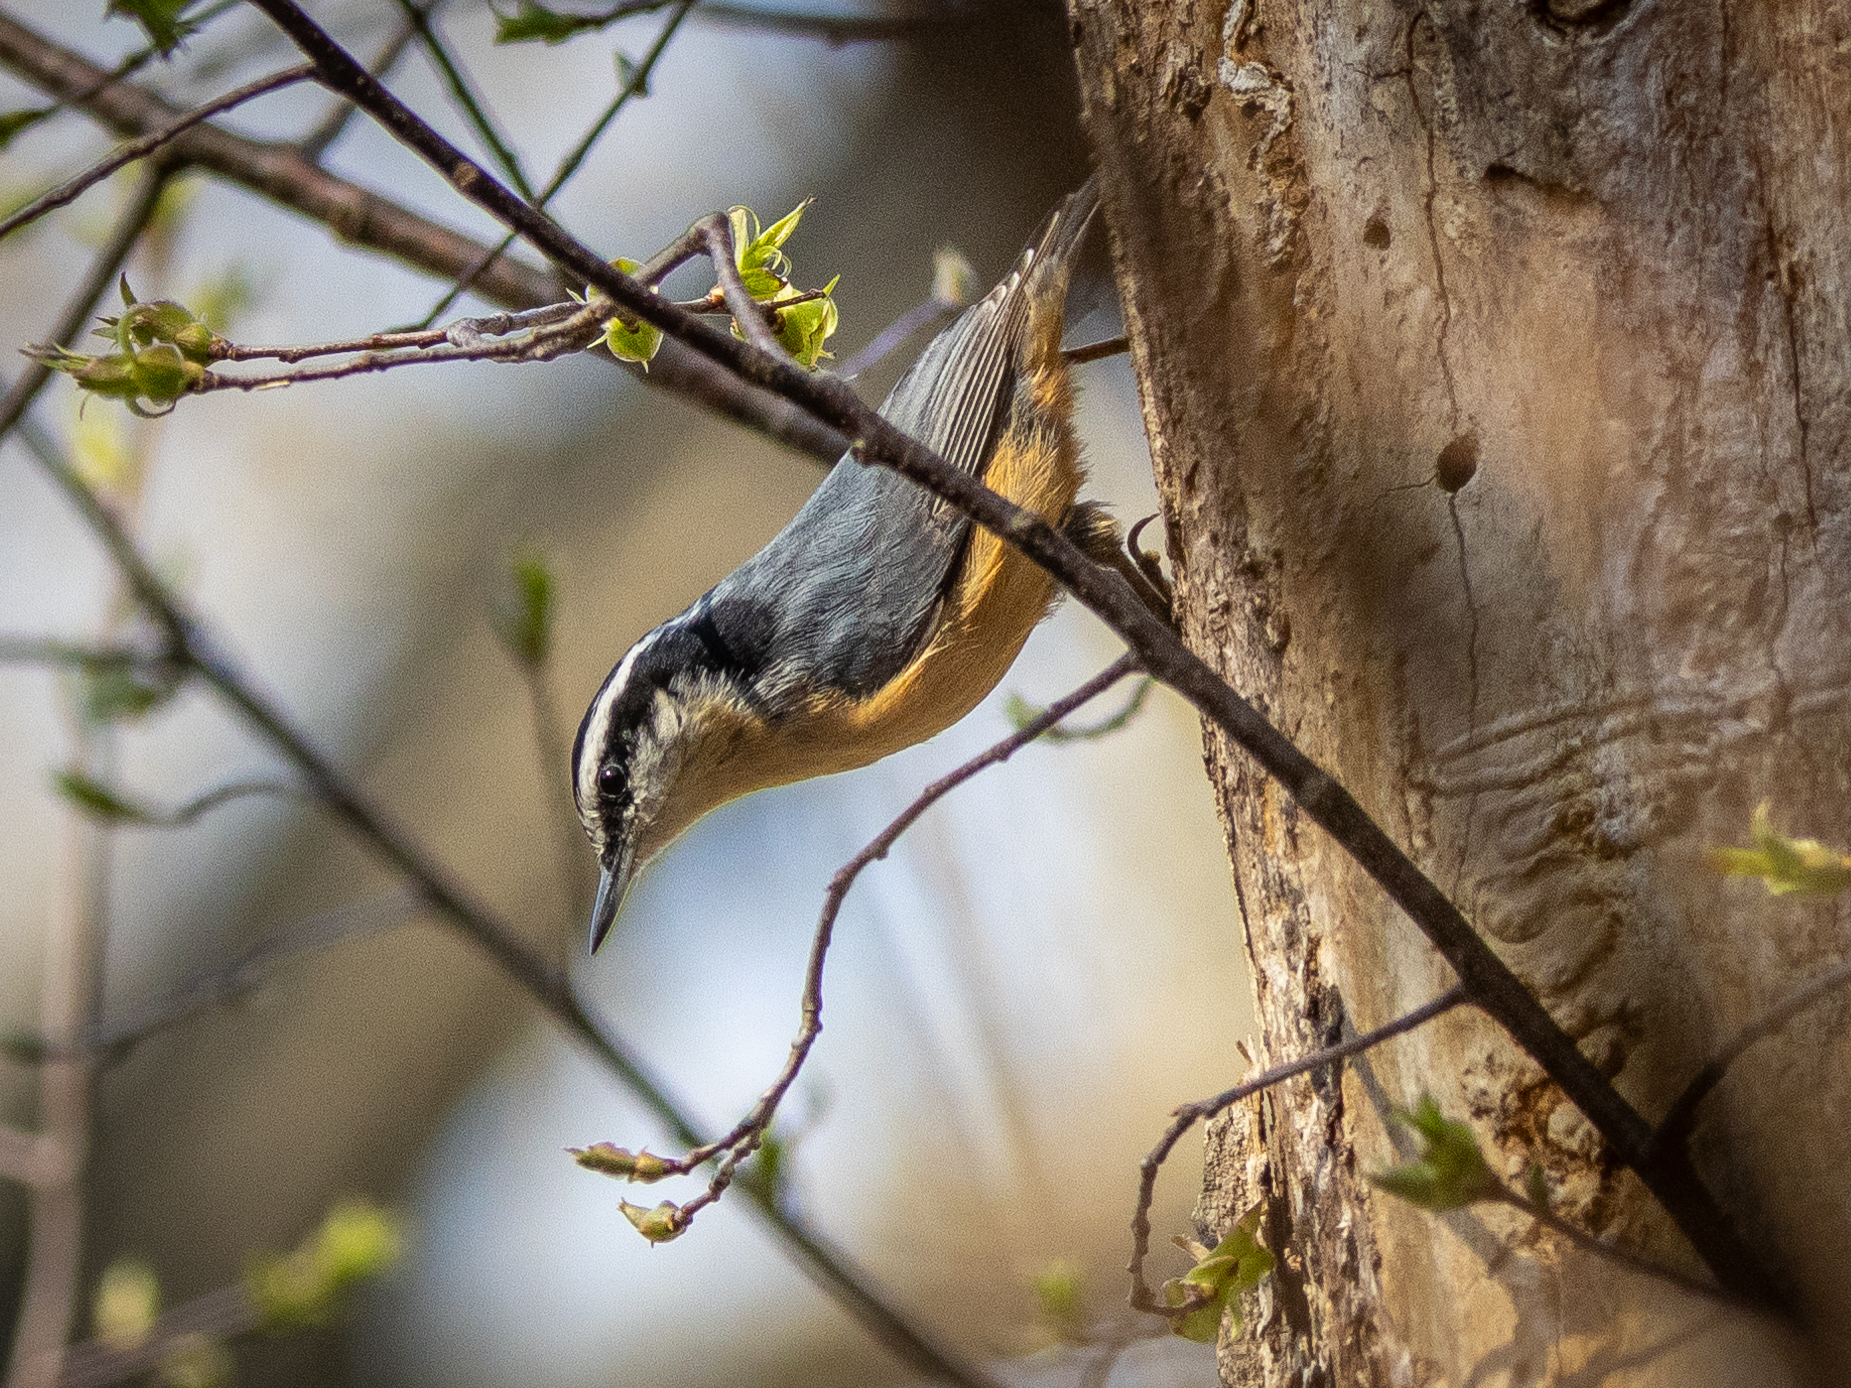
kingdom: Animalia
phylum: Chordata
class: Aves
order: Passeriformes
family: Sittidae
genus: Sitta
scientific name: Sitta canadensis
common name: Red-breasted nuthatch
